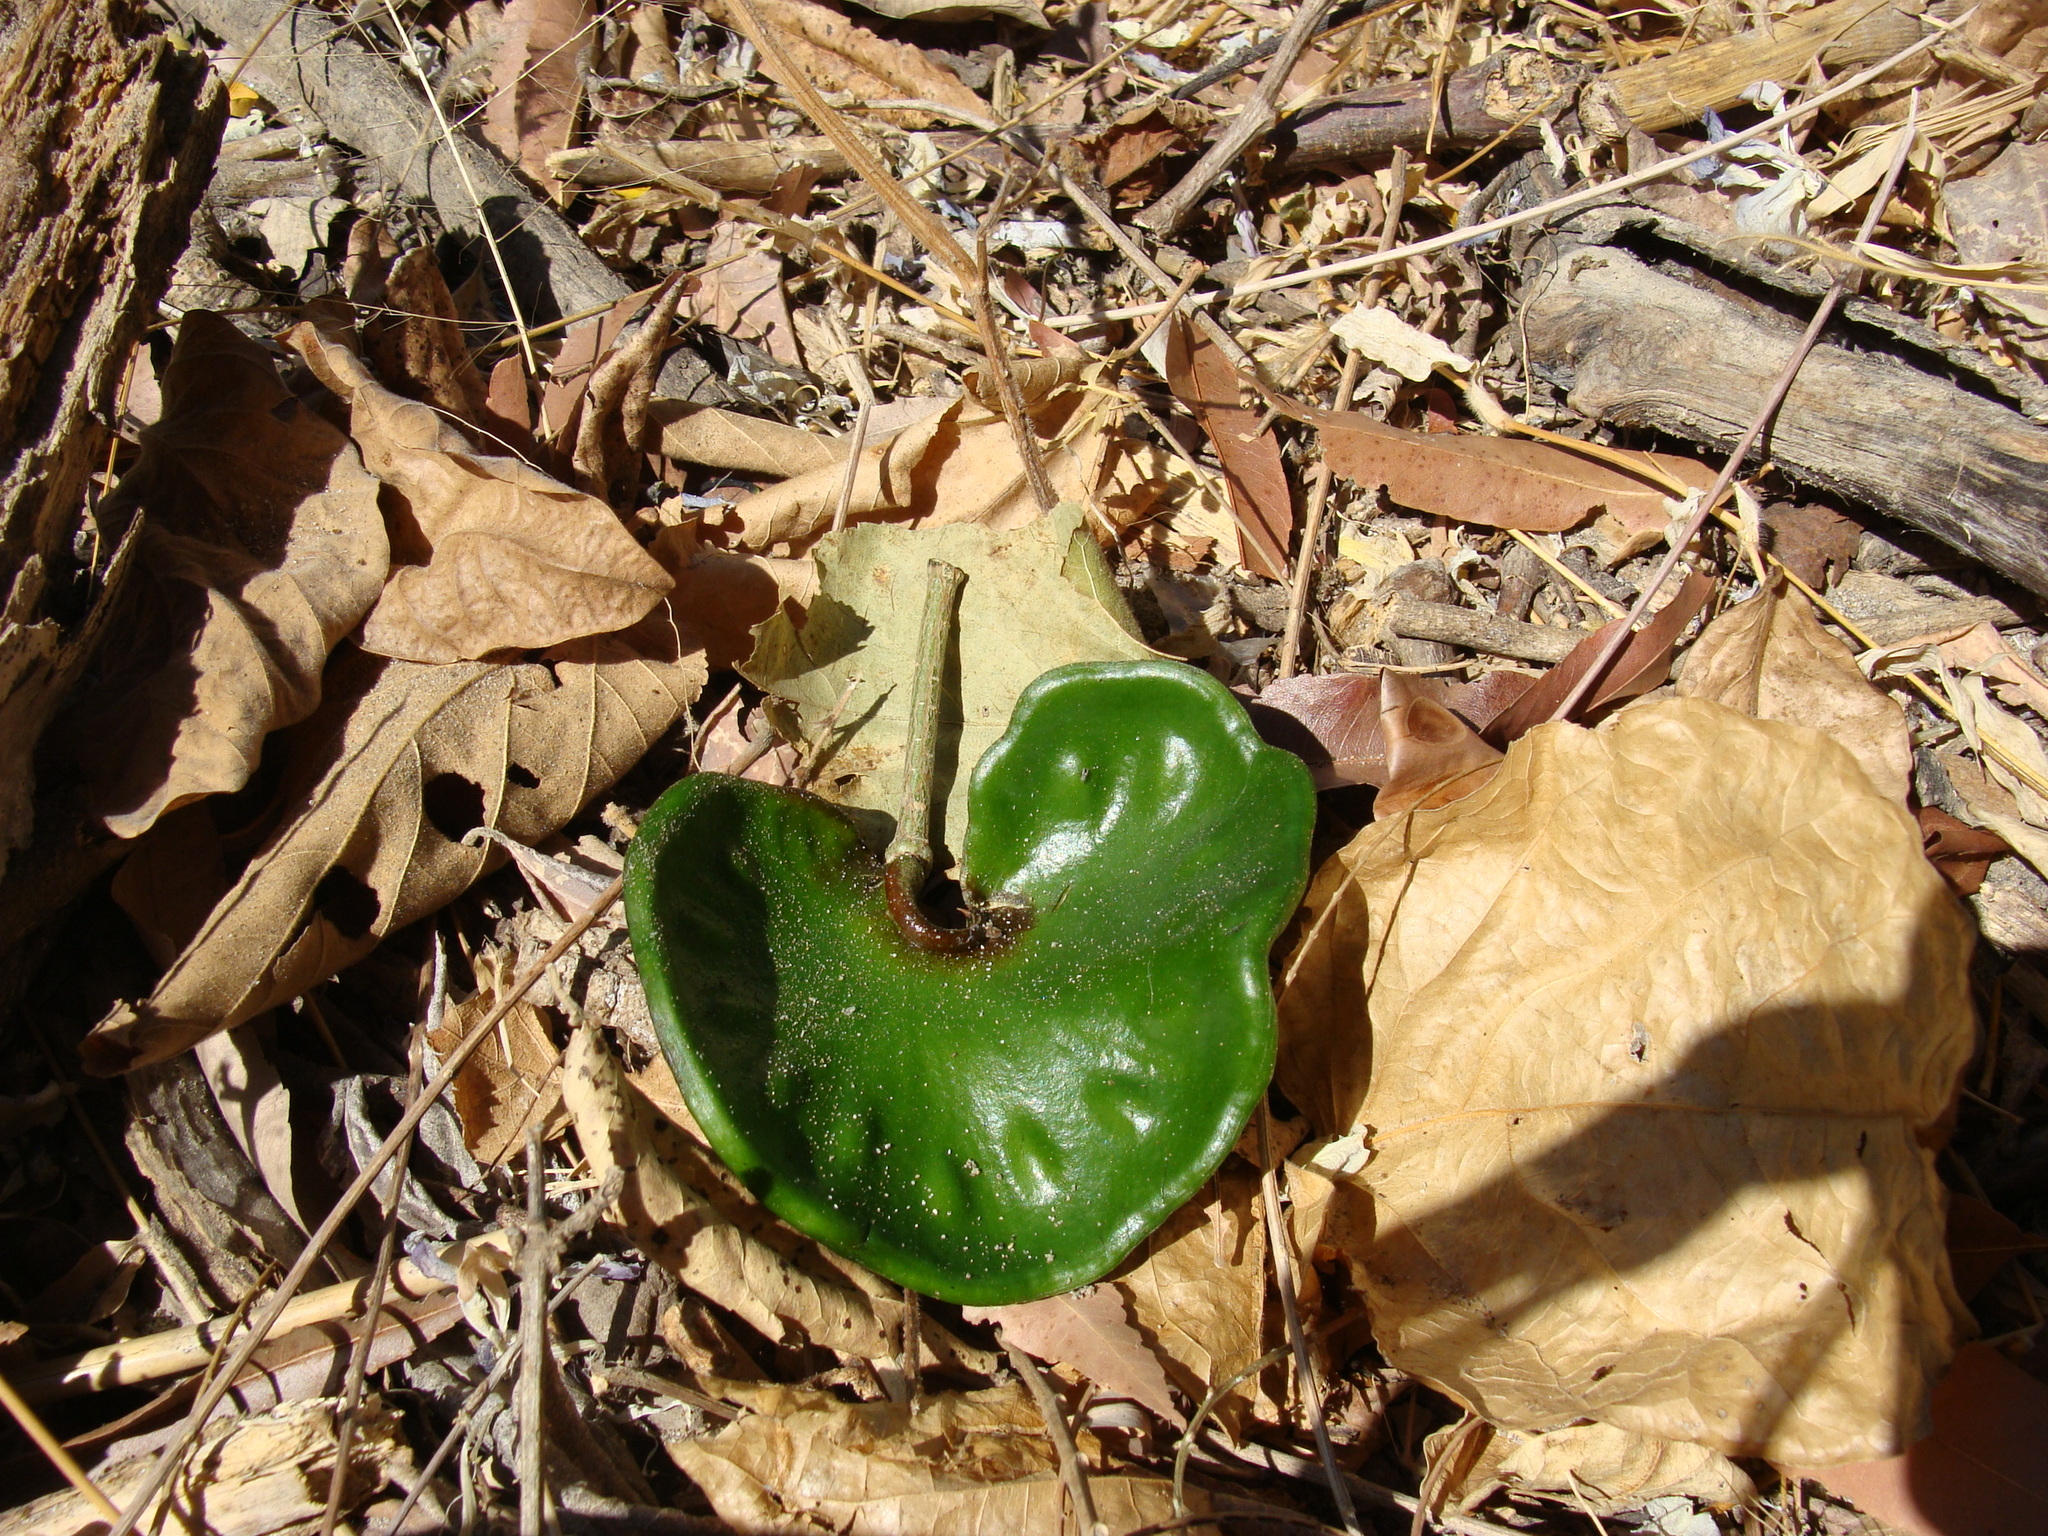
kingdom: Plantae
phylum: Tracheophyta
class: Magnoliopsida
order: Fabales
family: Fabaceae
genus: Enterolobium
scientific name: Enterolobium cyclocarpum
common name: Ear tree
